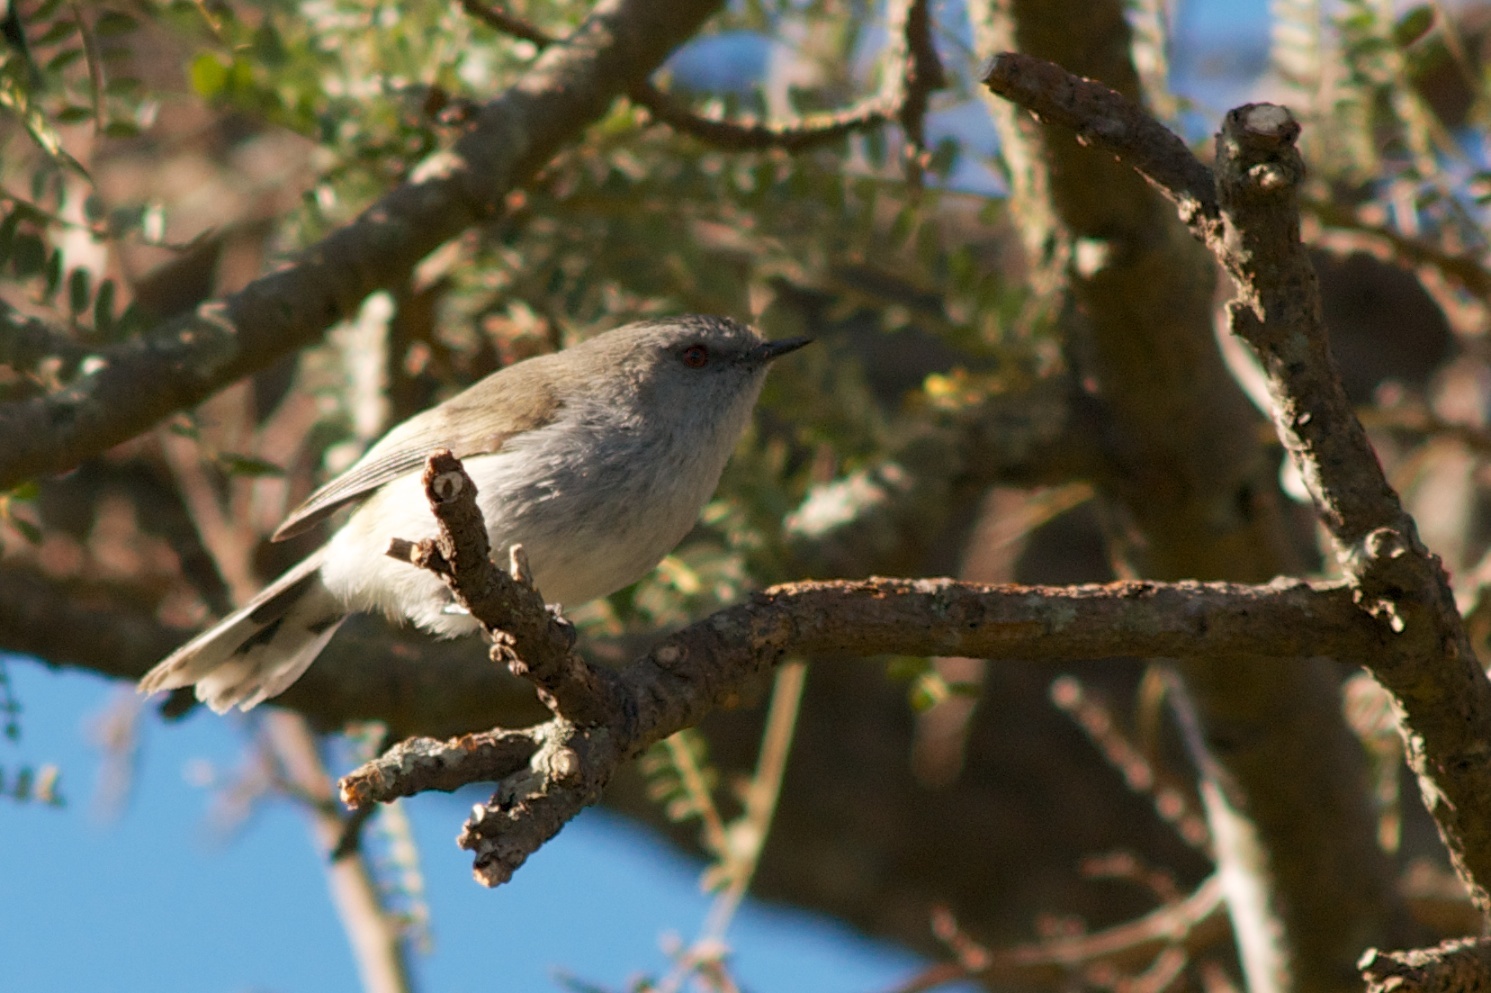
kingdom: Animalia
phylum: Chordata
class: Aves
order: Passeriformes
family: Acanthizidae
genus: Gerygone
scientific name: Gerygone igata
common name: Grey gerygone
